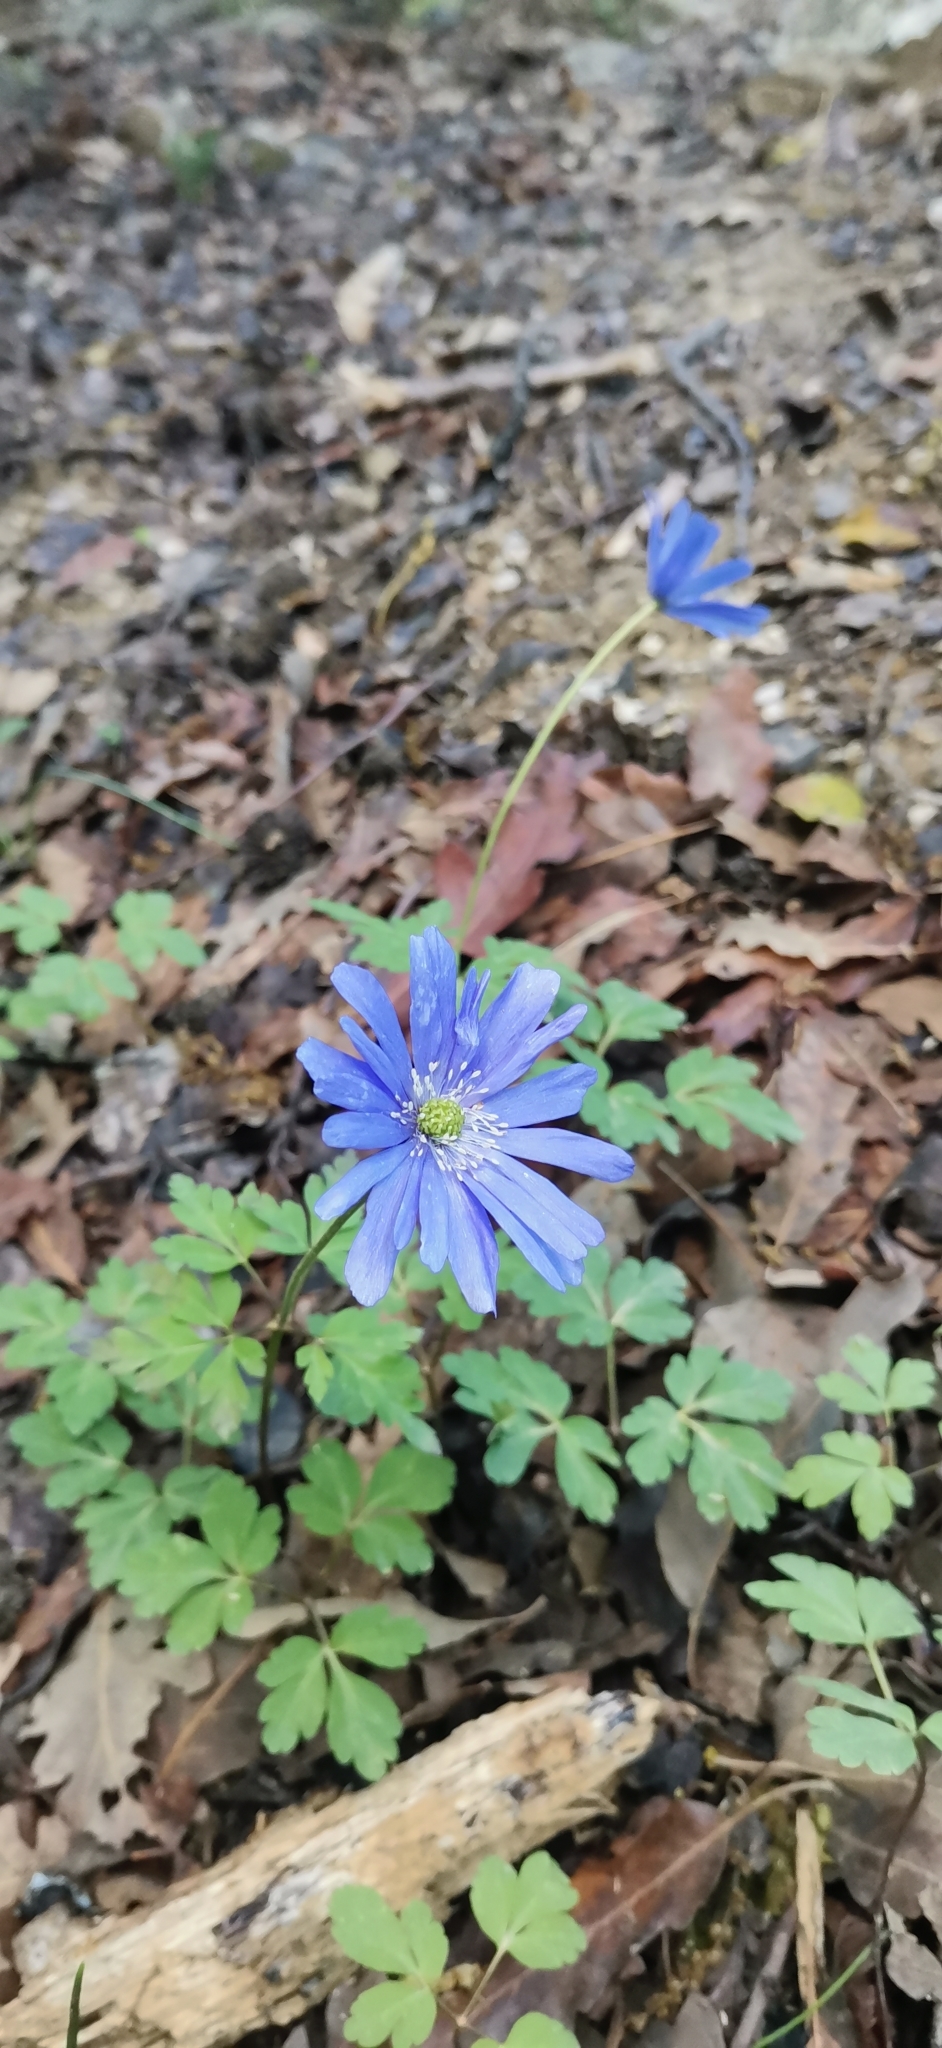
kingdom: Plantae
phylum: Tracheophyta
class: Magnoliopsida
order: Ranunculales
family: Ranunculaceae
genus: Anemone
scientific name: Anemone apennina
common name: Blue anemone
